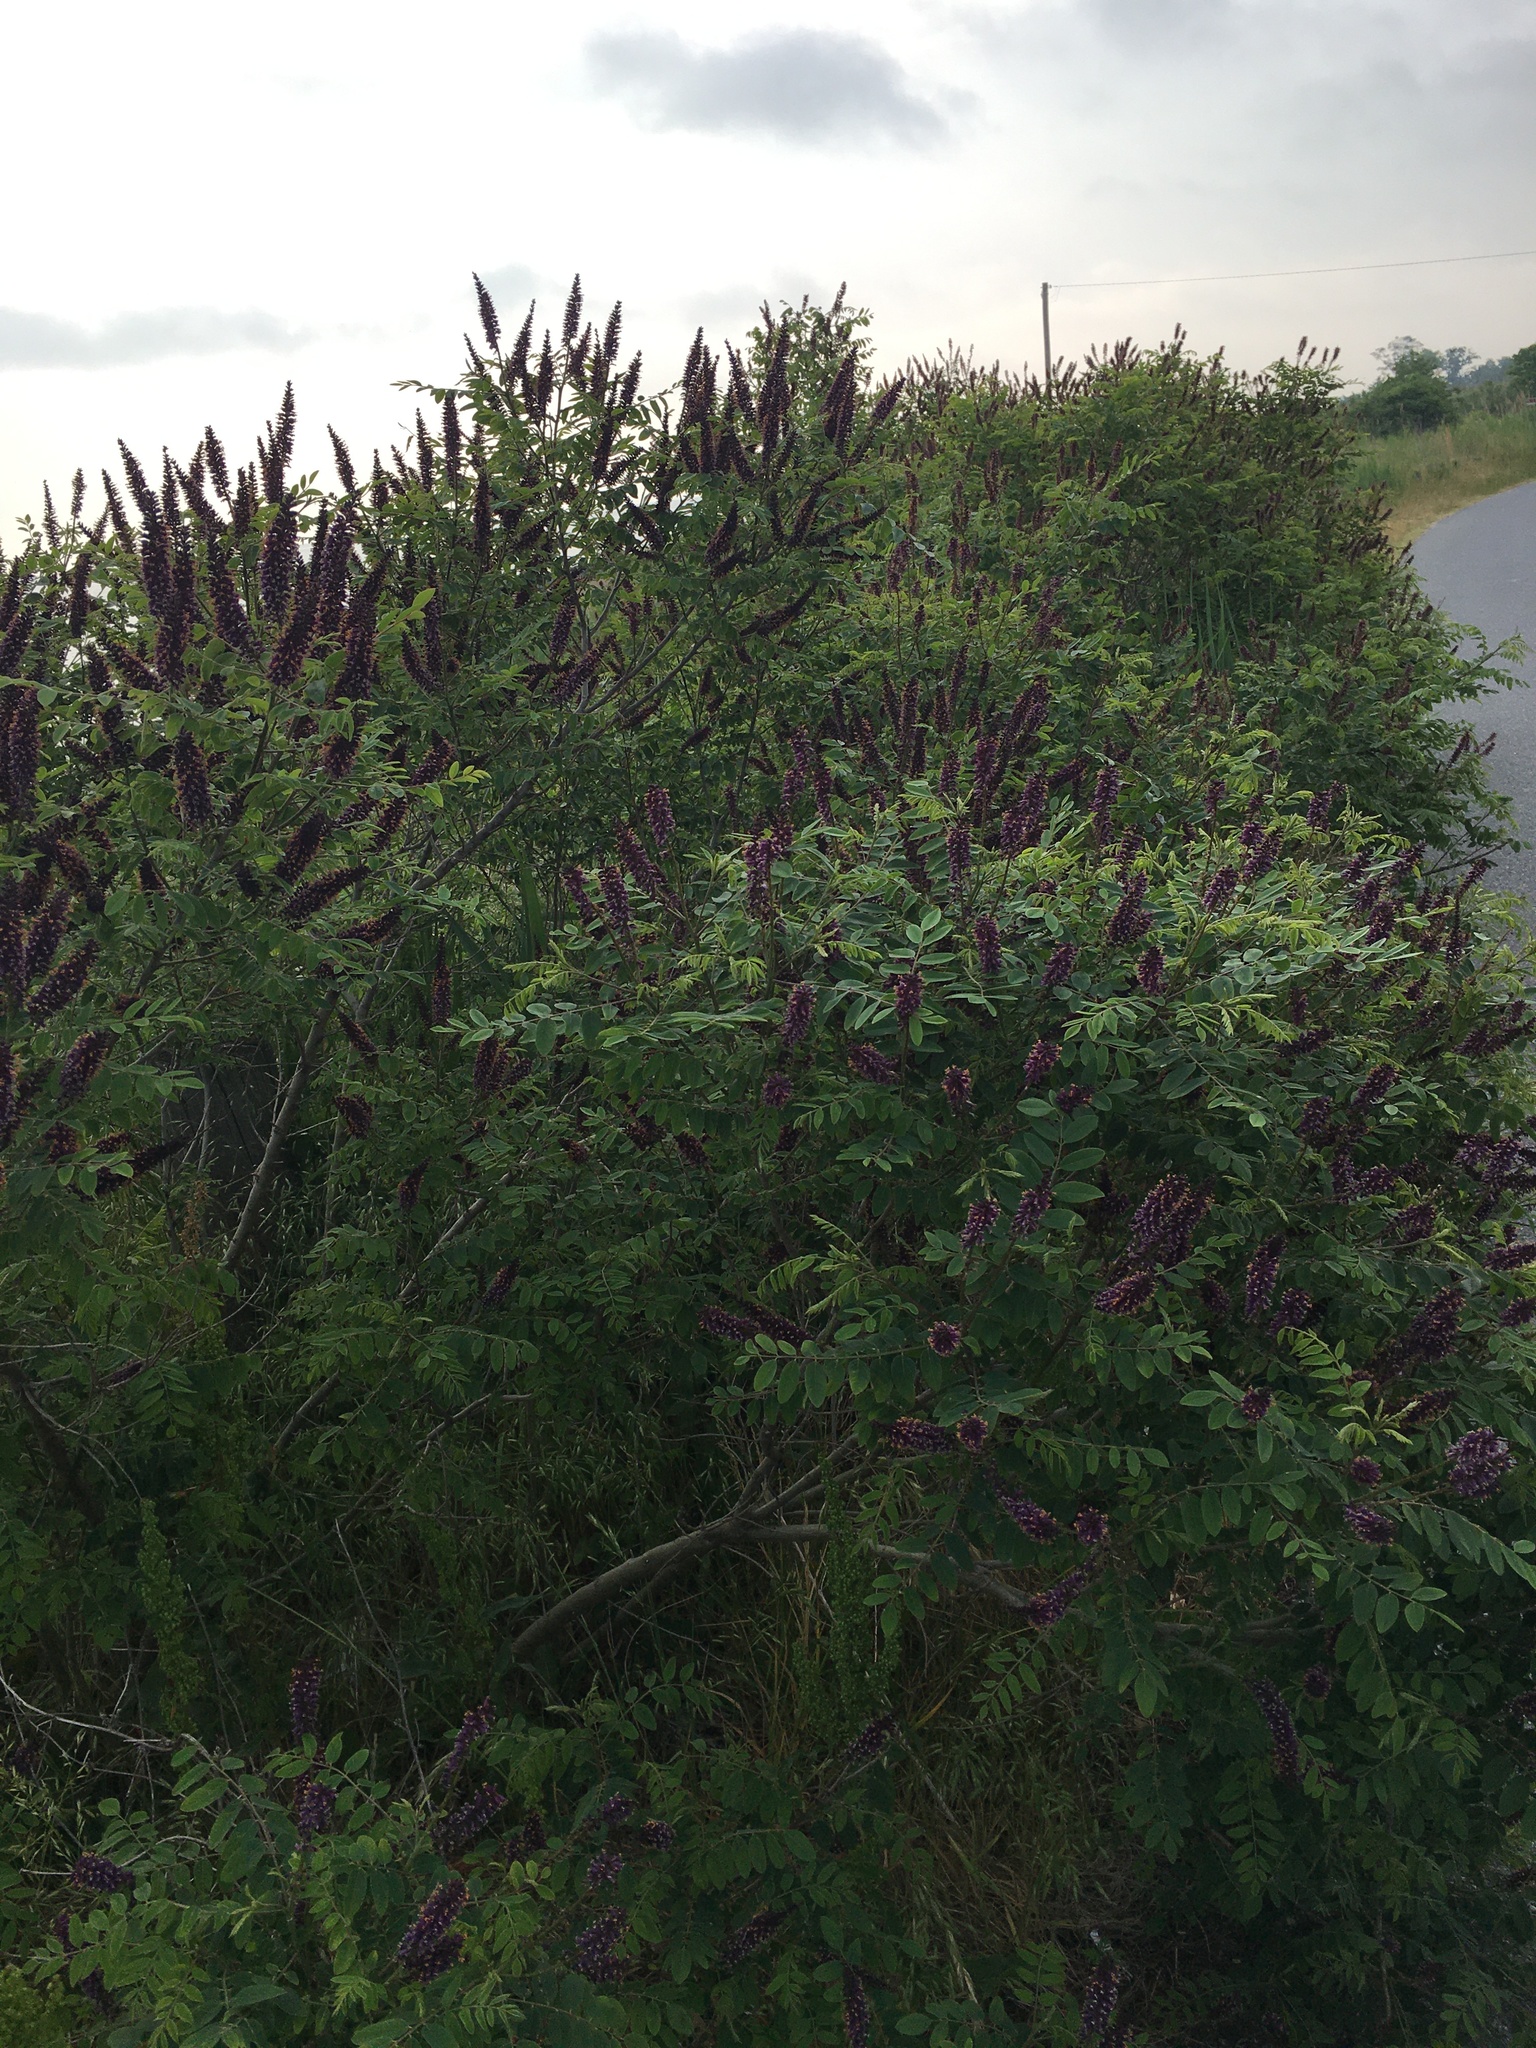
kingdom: Plantae
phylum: Tracheophyta
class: Magnoliopsida
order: Fabales
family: Fabaceae
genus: Amorpha
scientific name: Amorpha fruticosa
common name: False indigo
